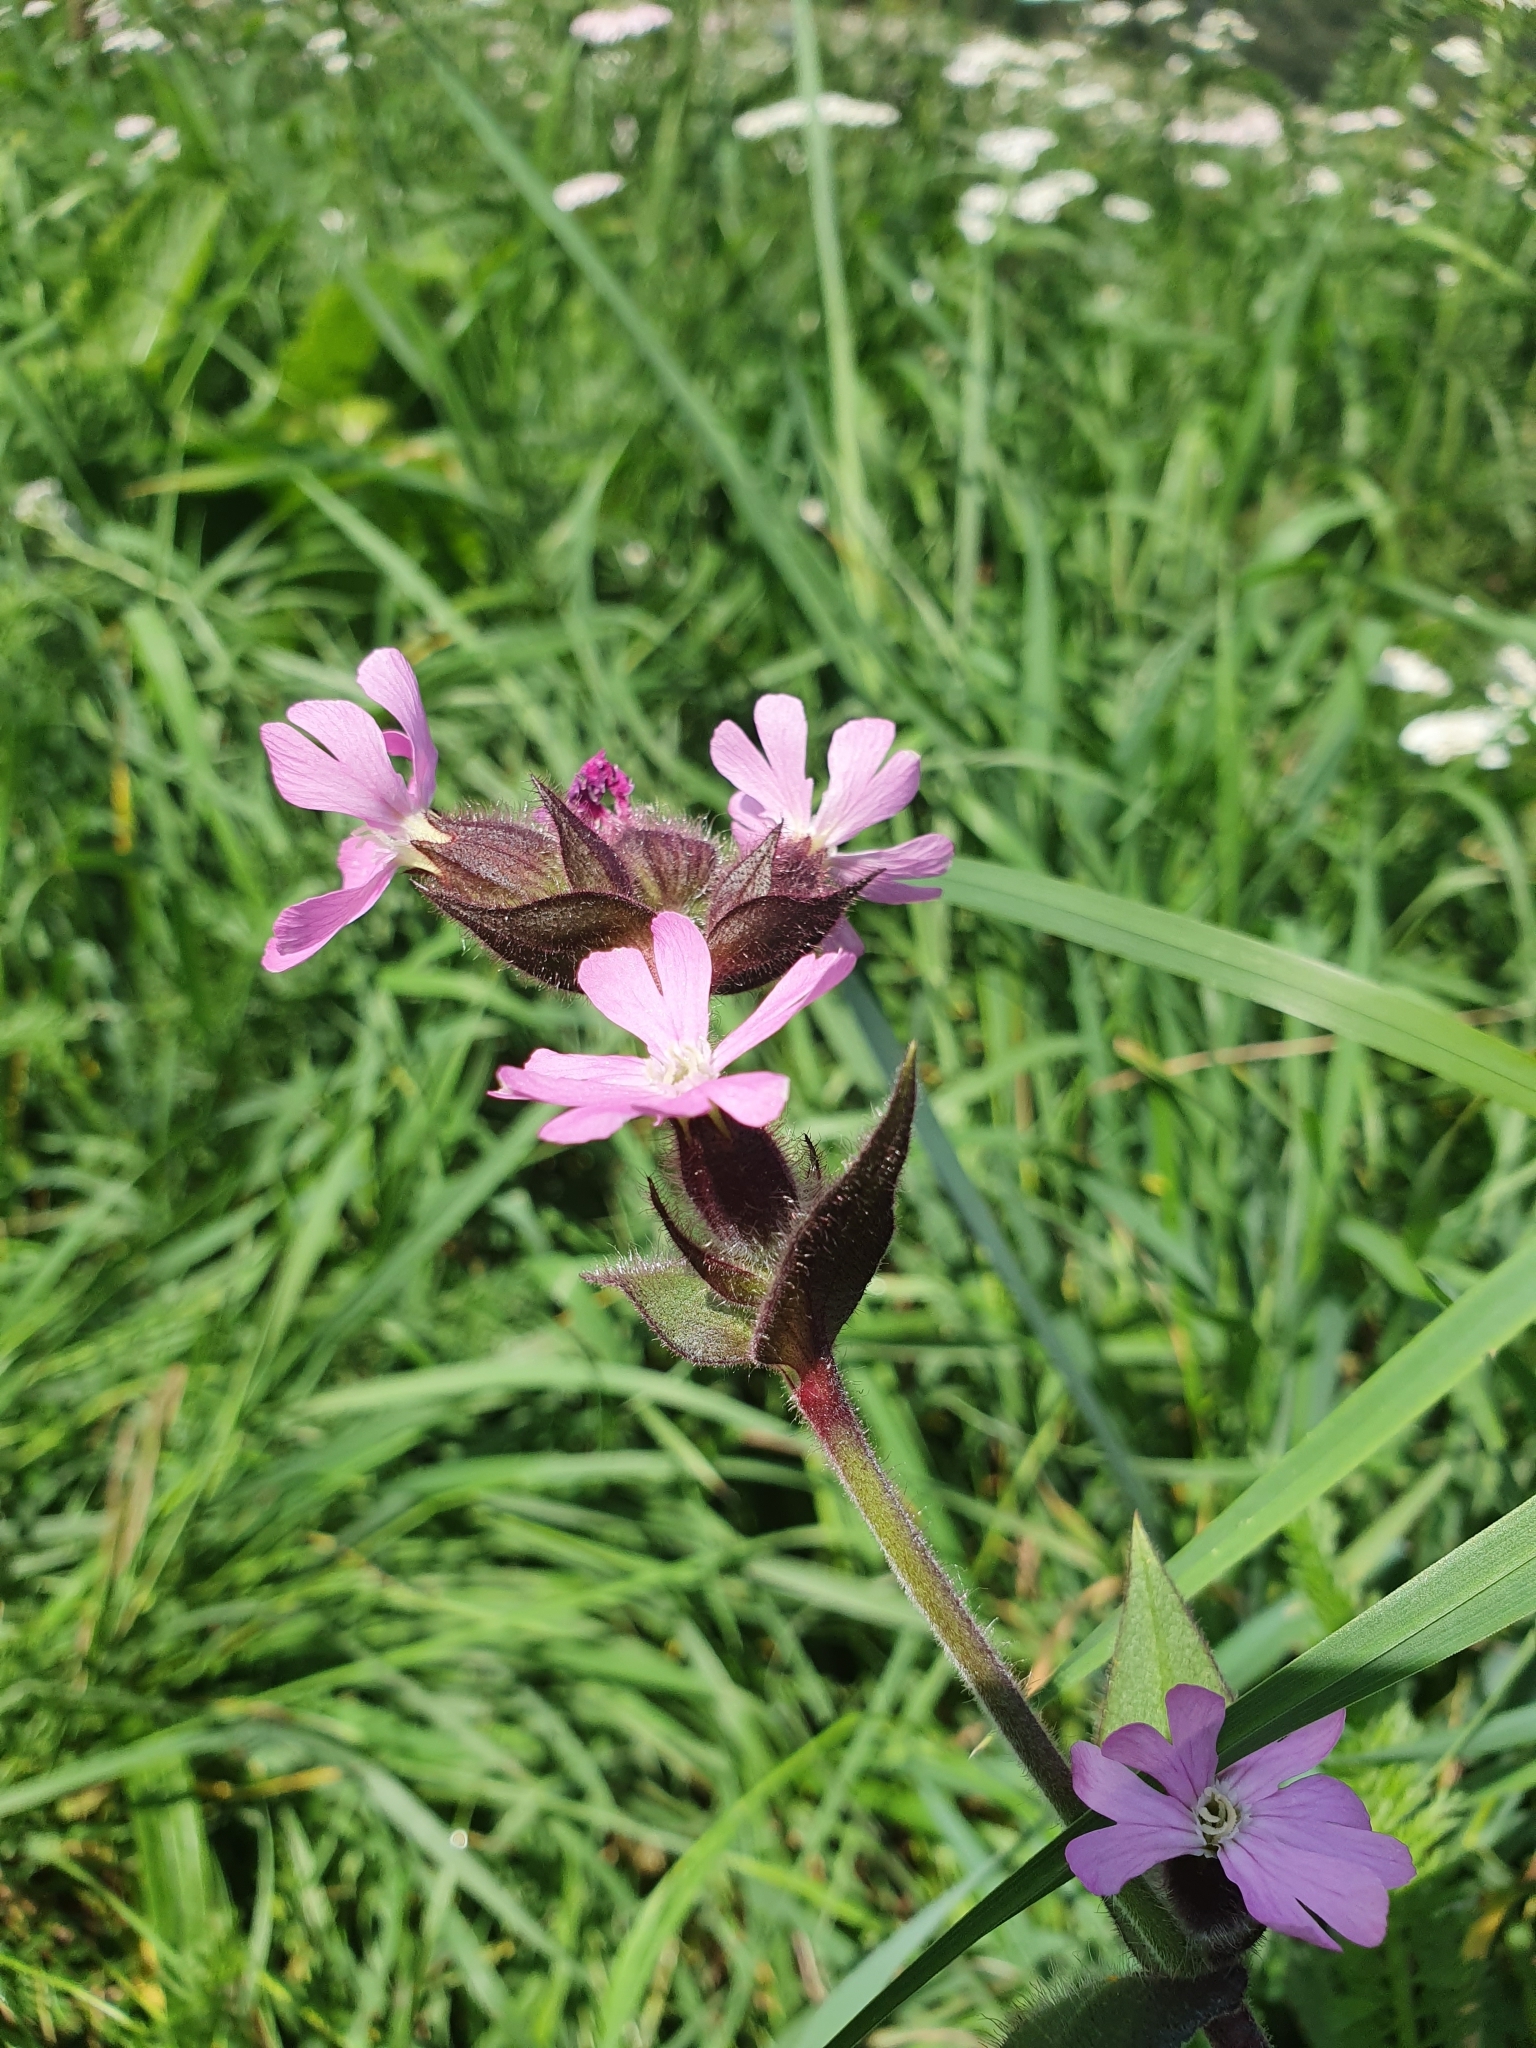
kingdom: Plantae
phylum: Tracheophyta
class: Magnoliopsida
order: Caryophyllales
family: Caryophyllaceae
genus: Silene
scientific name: Silene dioica
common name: Red campion
